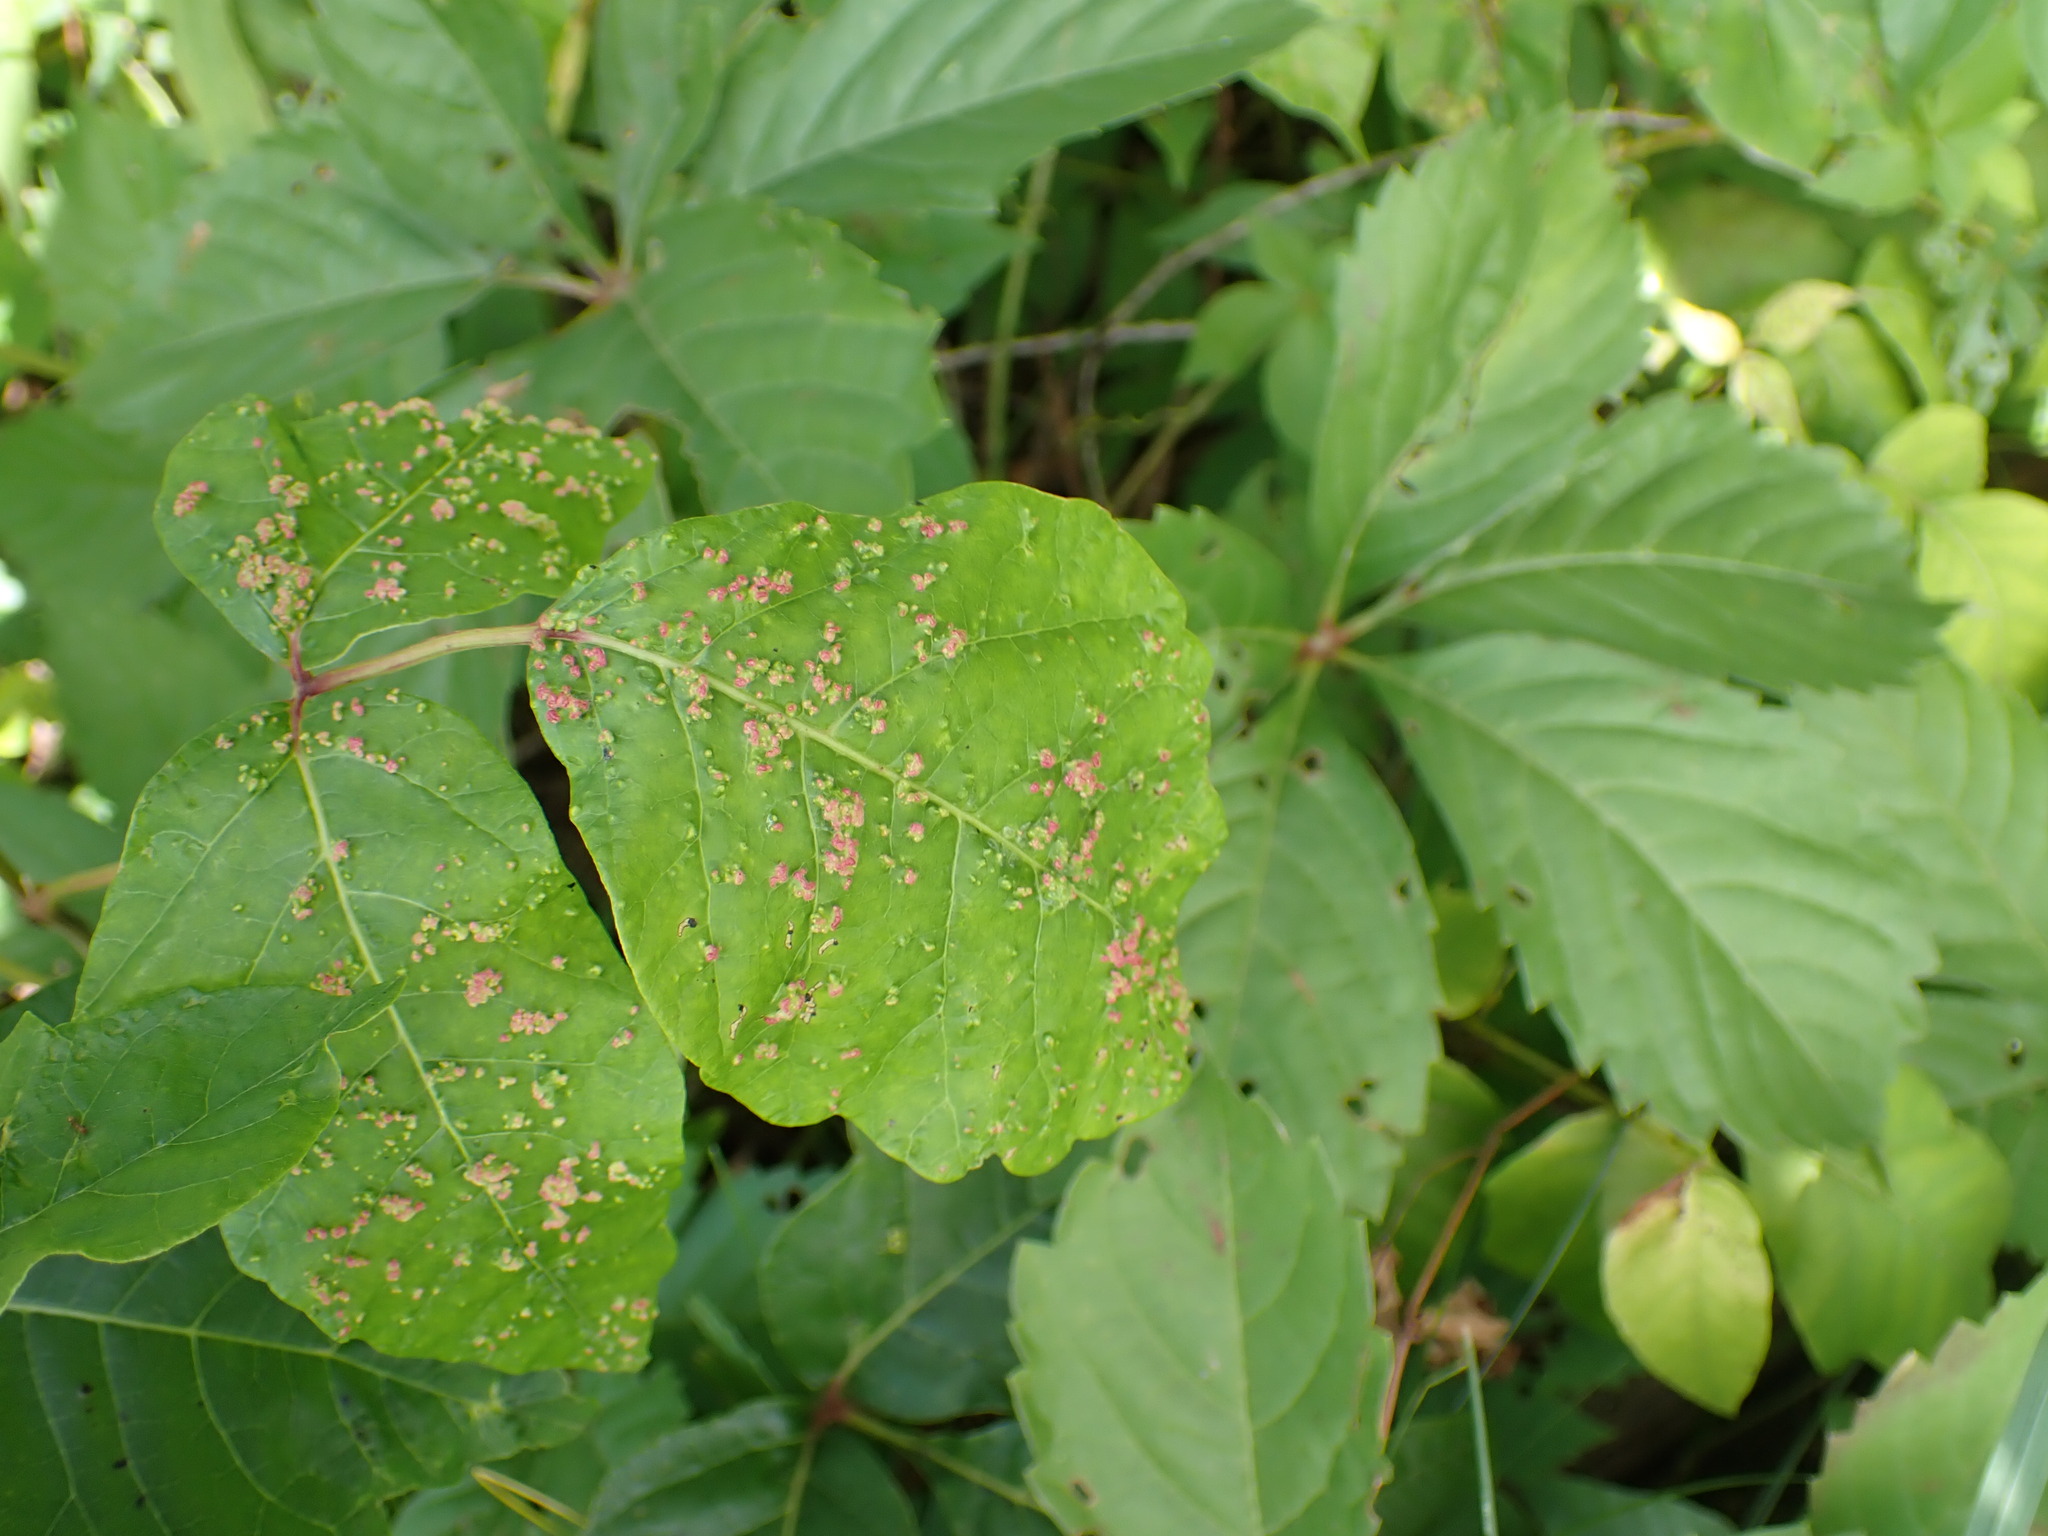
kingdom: Animalia
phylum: Arthropoda
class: Arachnida
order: Trombidiformes
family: Eriophyidae
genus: Aculops
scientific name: Aculops
